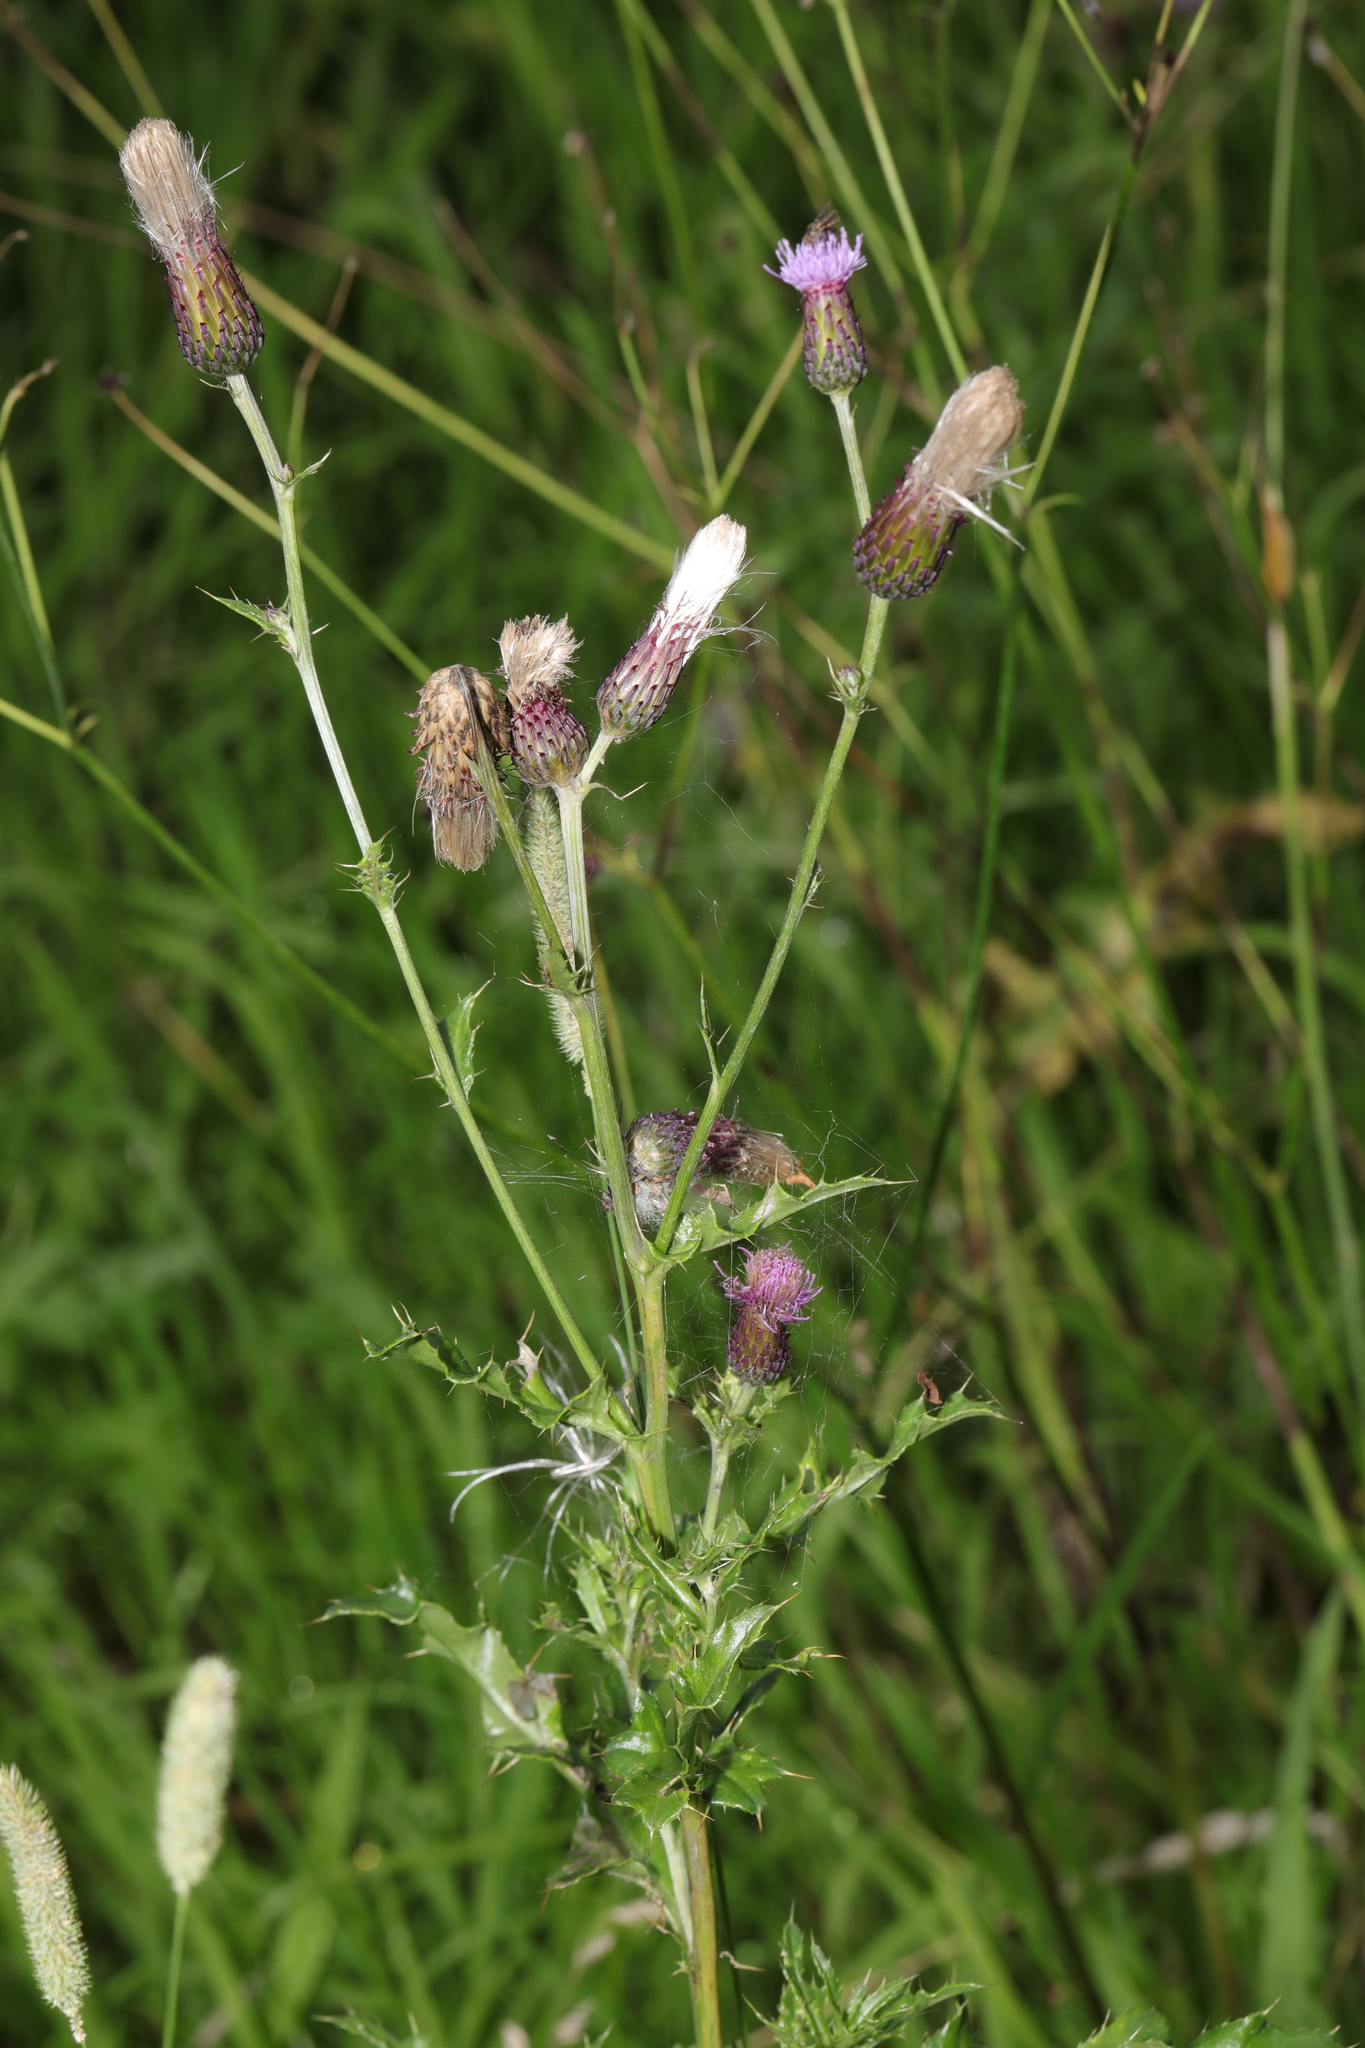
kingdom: Plantae
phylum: Tracheophyta
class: Magnoliopsida
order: Asterales
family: Asteraceae
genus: Cirsium
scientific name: Cirsium arvense
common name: Creeping thistle
